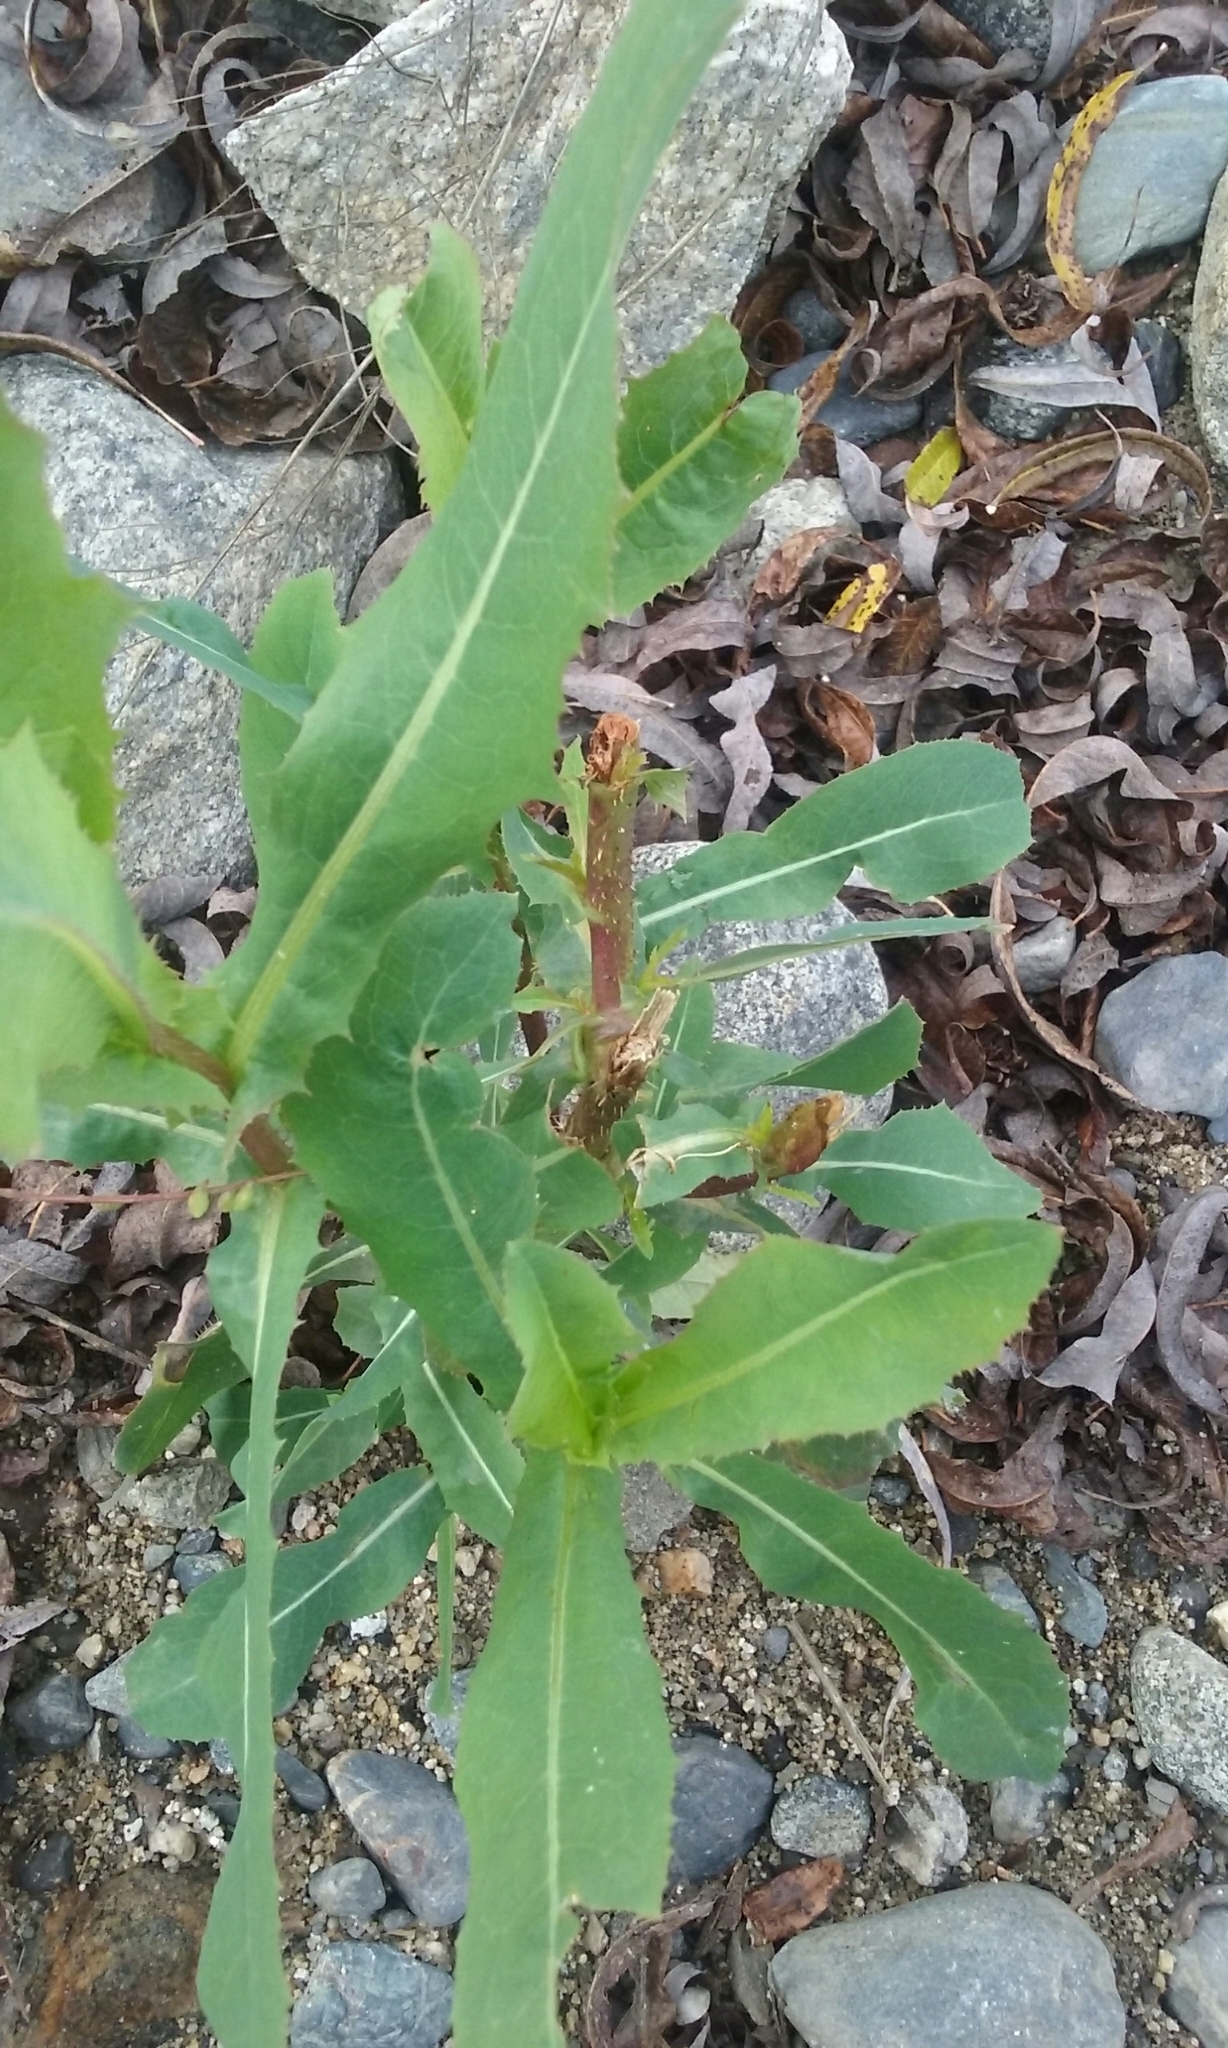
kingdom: Plantae
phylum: Tracheophyta
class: Magnoliopsida
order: Asterales
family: Asteraceae
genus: Lactuca
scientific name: Lactuca serriola
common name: Prickly lettuce
